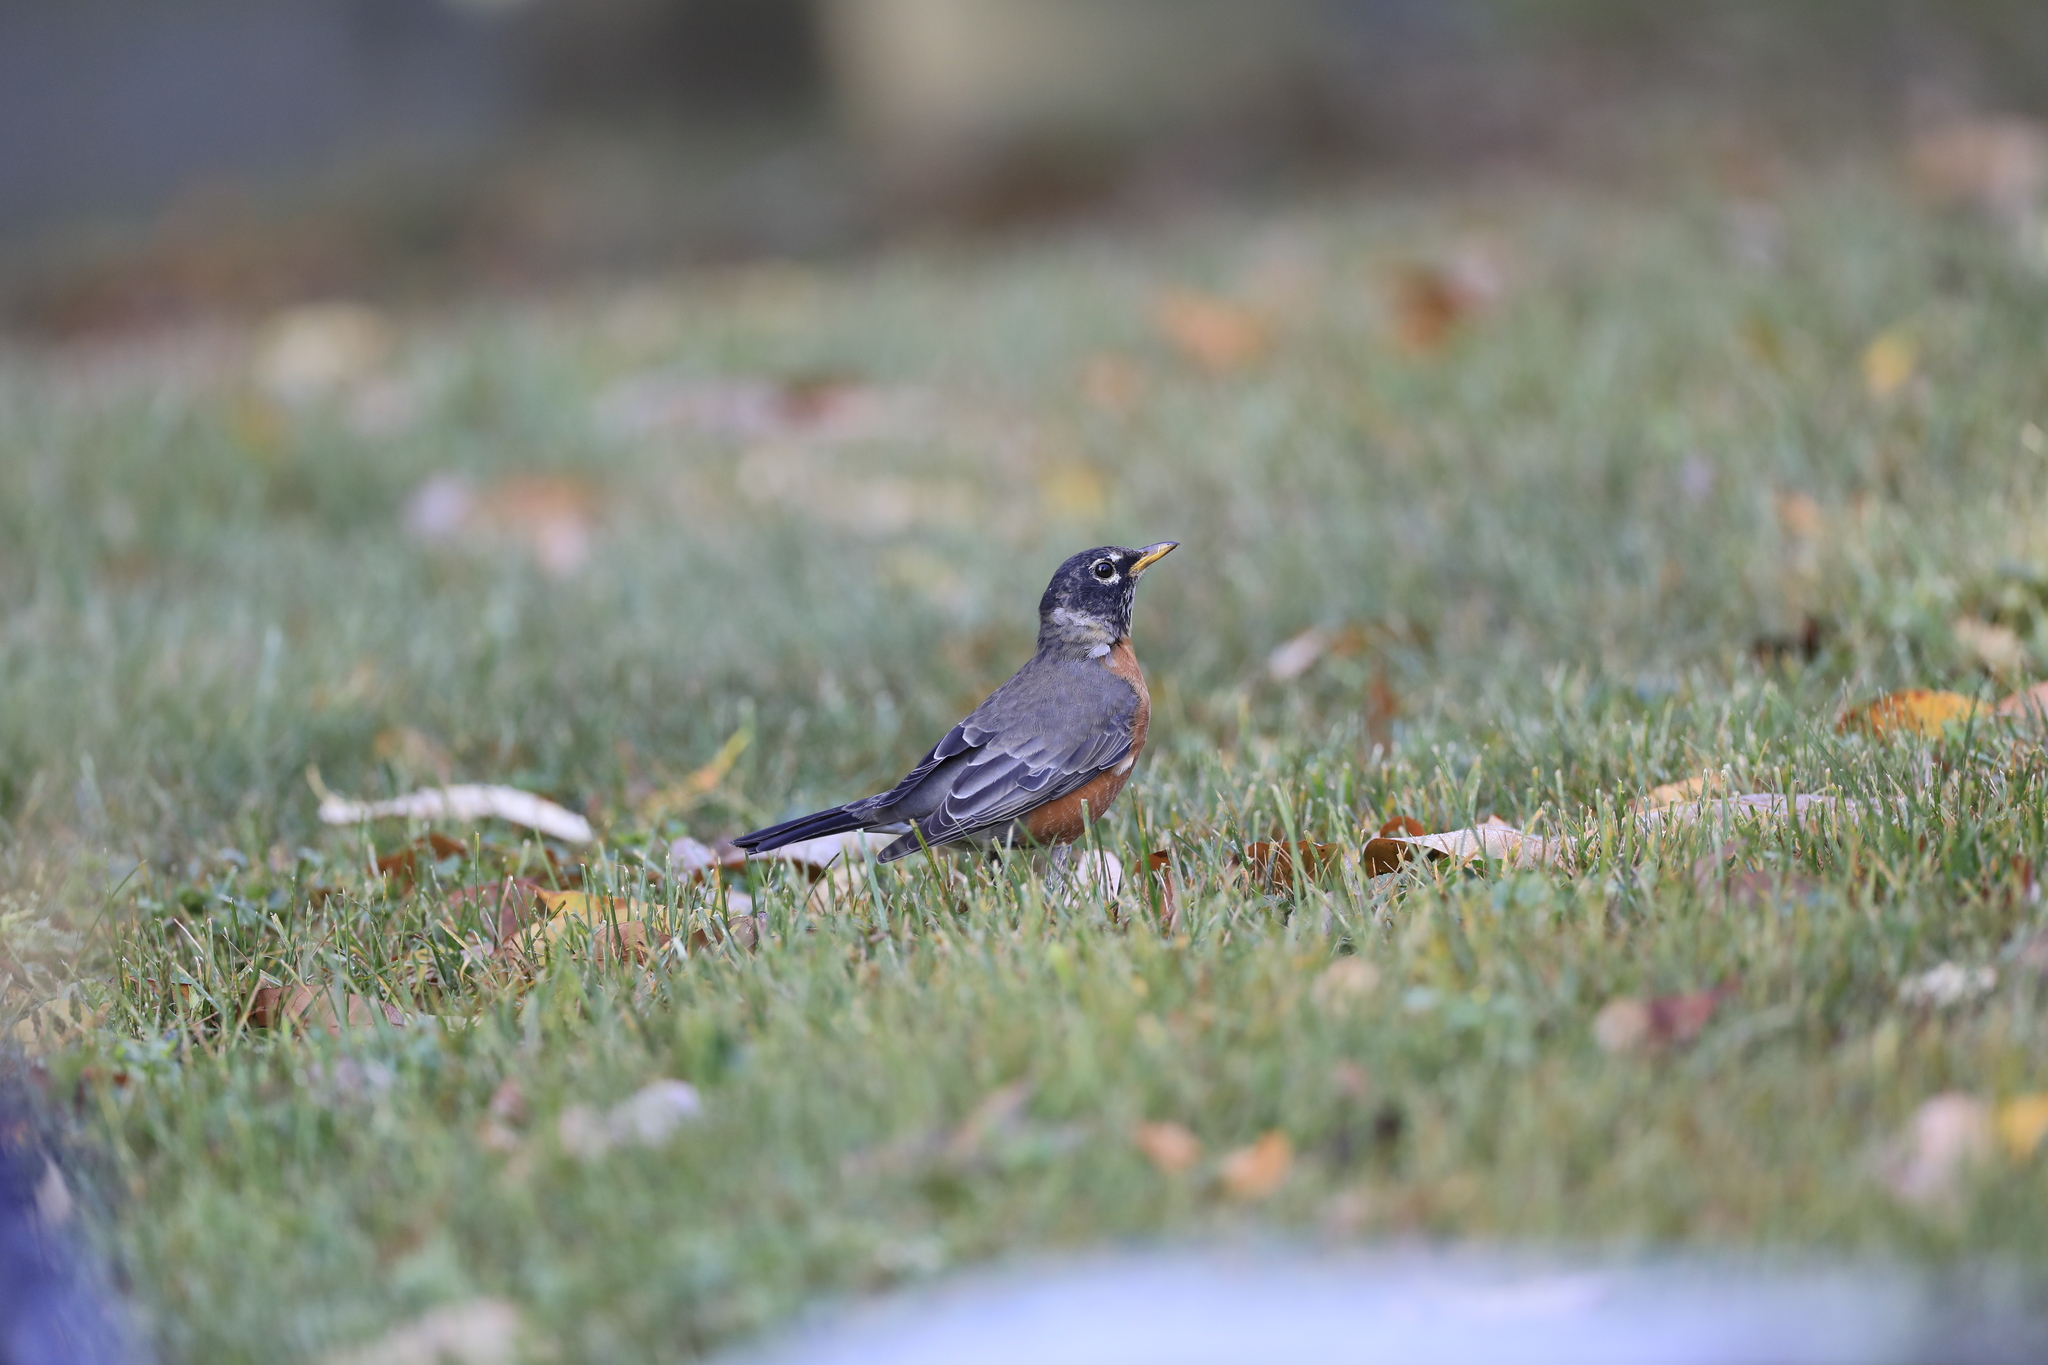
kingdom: Animalia
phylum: Chordata
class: Aves
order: Passeriformes
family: Turdidae
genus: Turdus
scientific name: Turdus migratorius
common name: American robin
